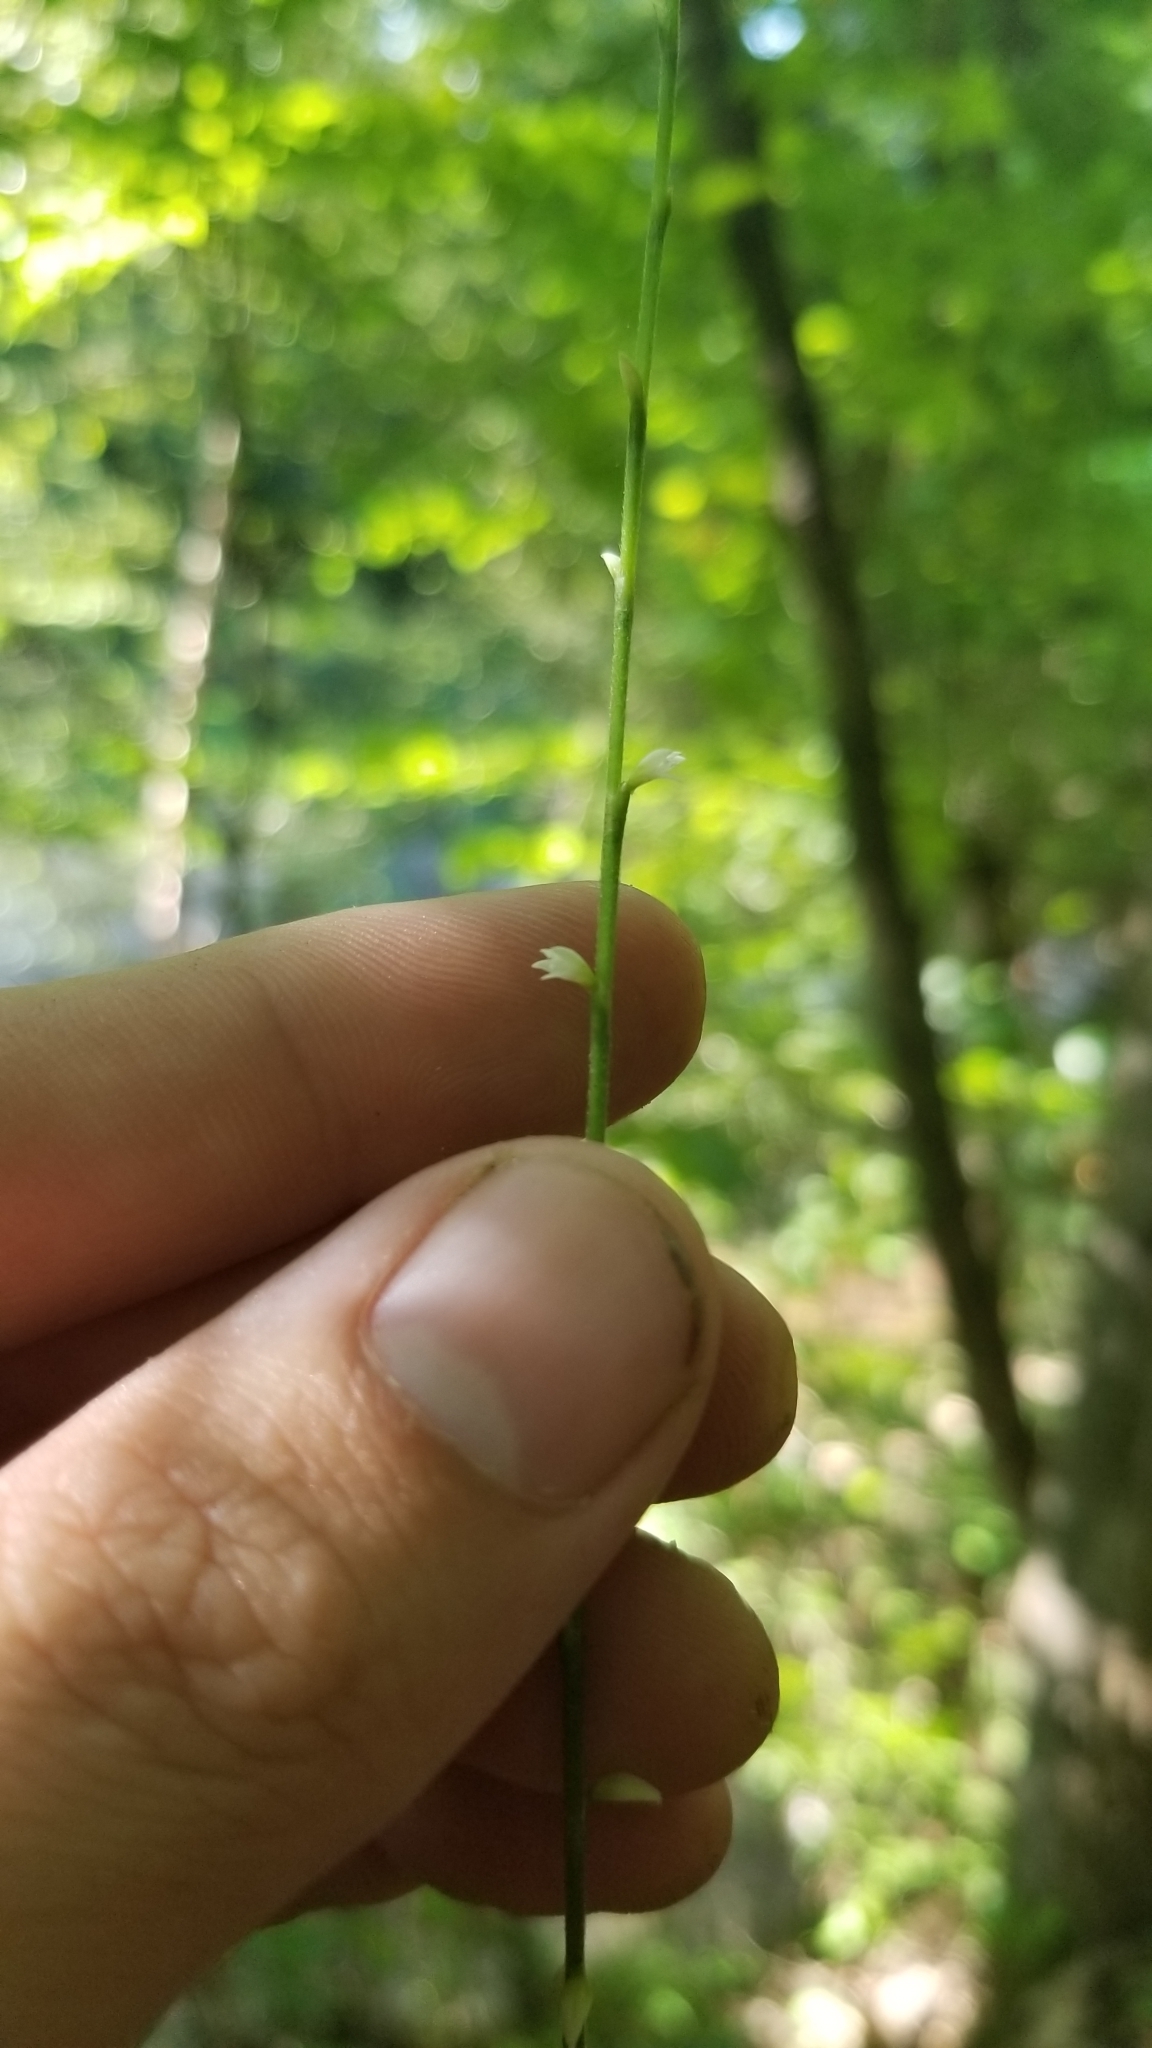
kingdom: Plantae
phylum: Tracheophyta
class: Magnoliopsida
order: Caryophyllales
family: Polygonaceae
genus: Persicaria
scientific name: Persicaria virginiana
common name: Jumpseed
